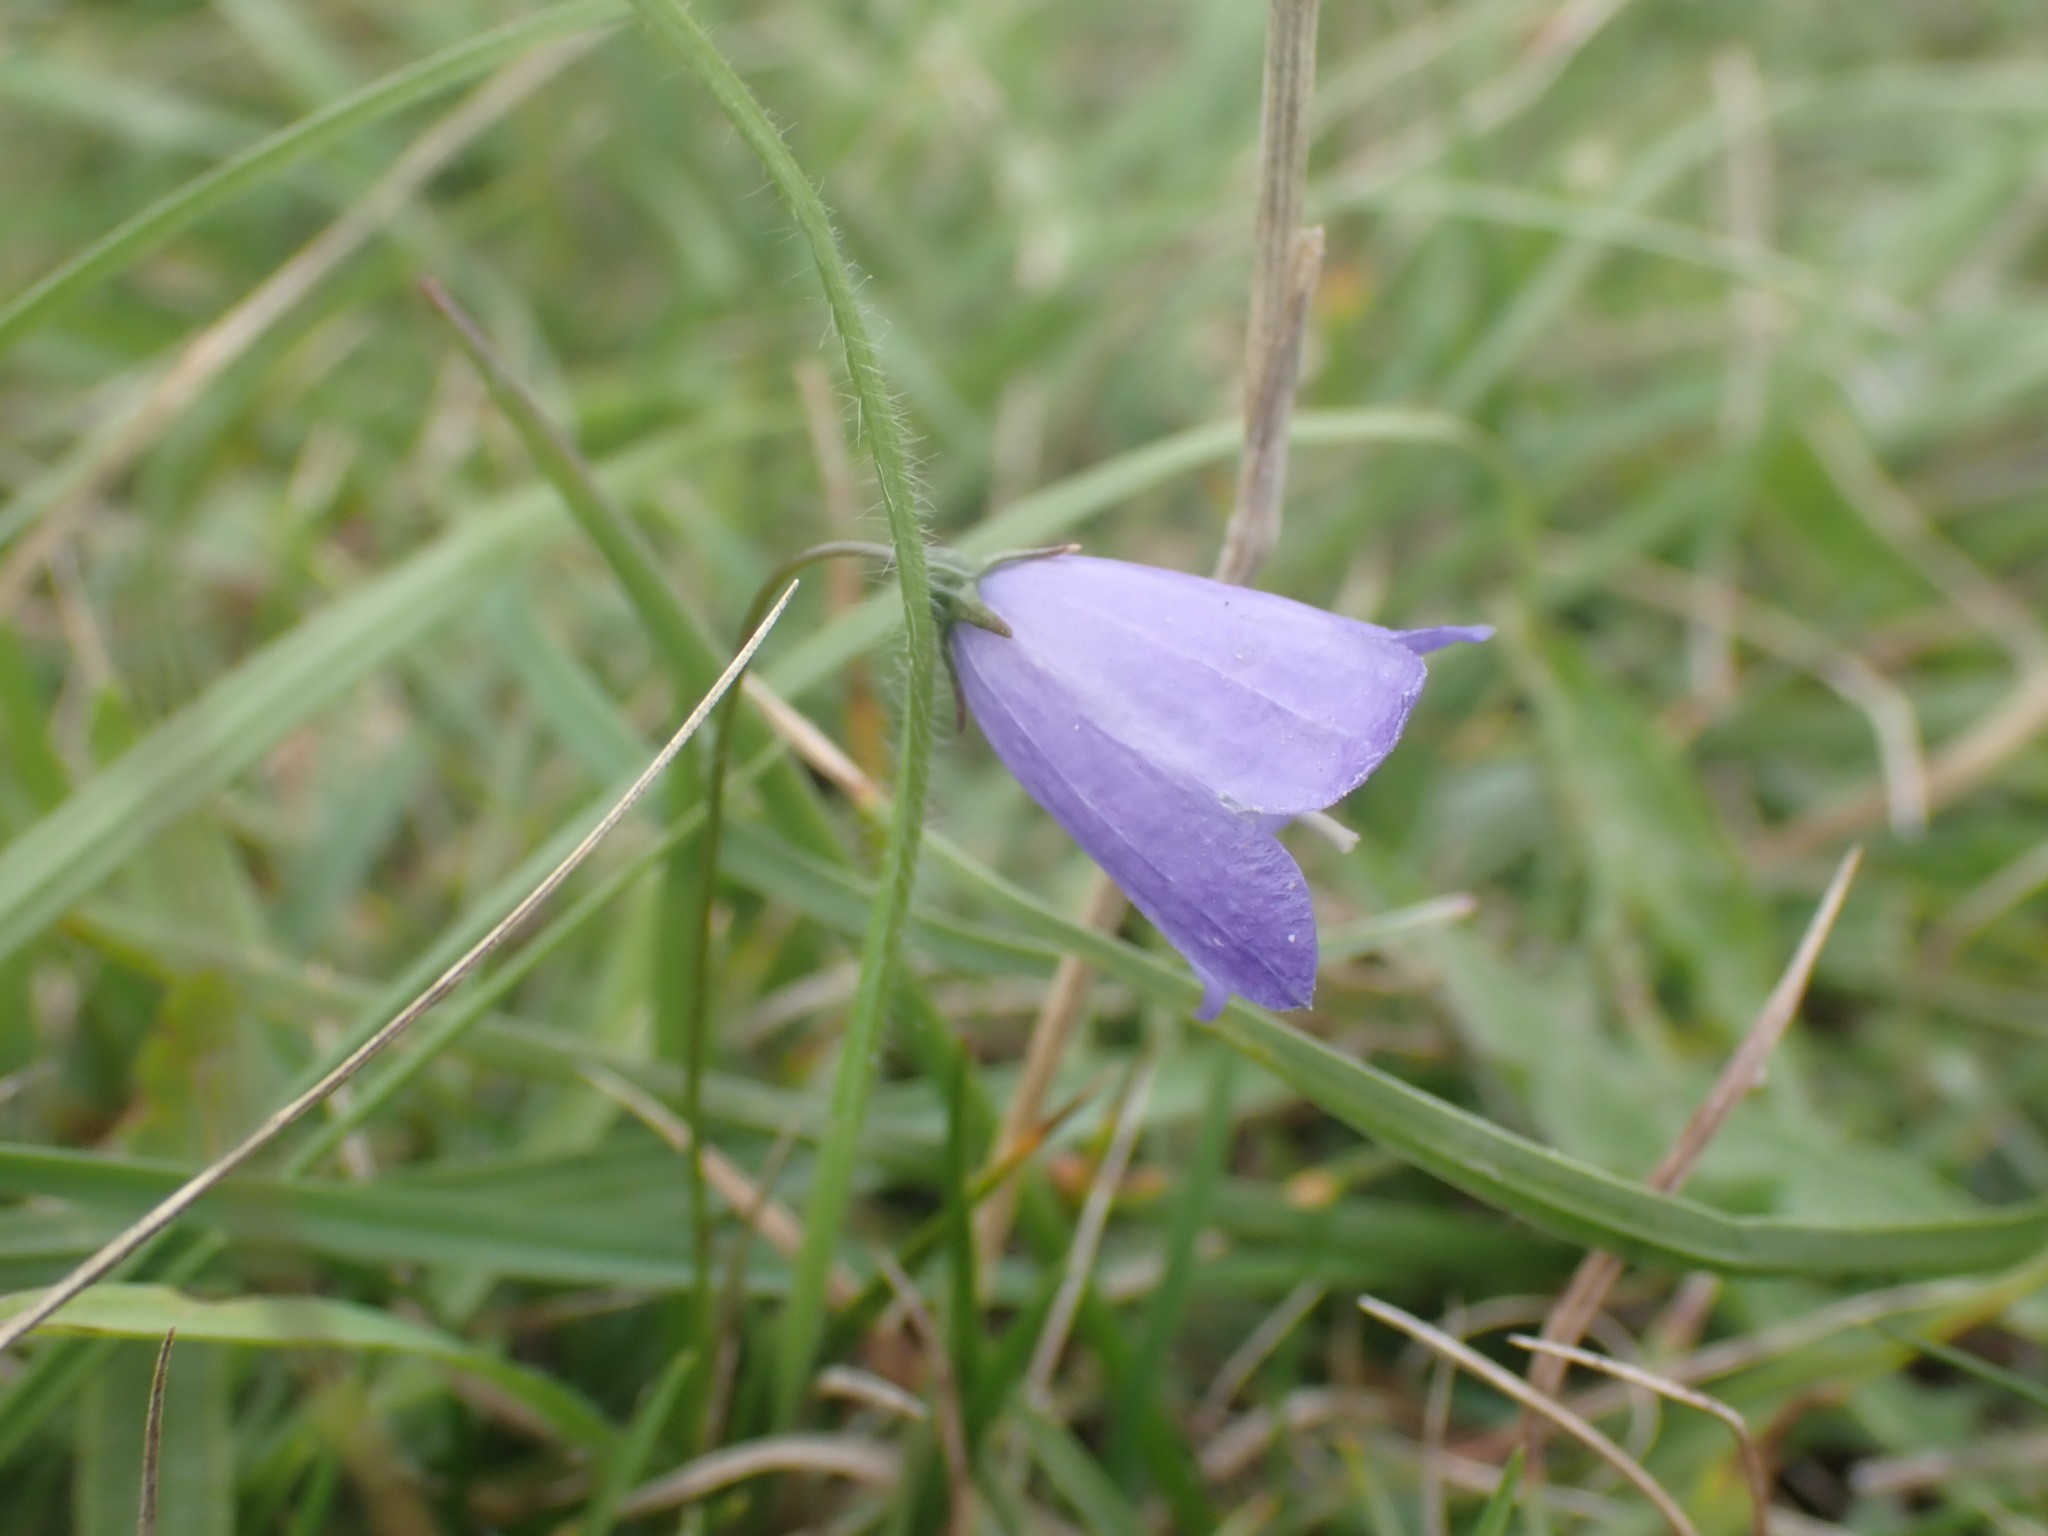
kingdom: Plantae
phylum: Tracheophyta
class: Magnoliopsida
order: Asterales
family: Campanulaceae
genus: Campanula
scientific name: Campanula rotundifolia
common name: Harebell
